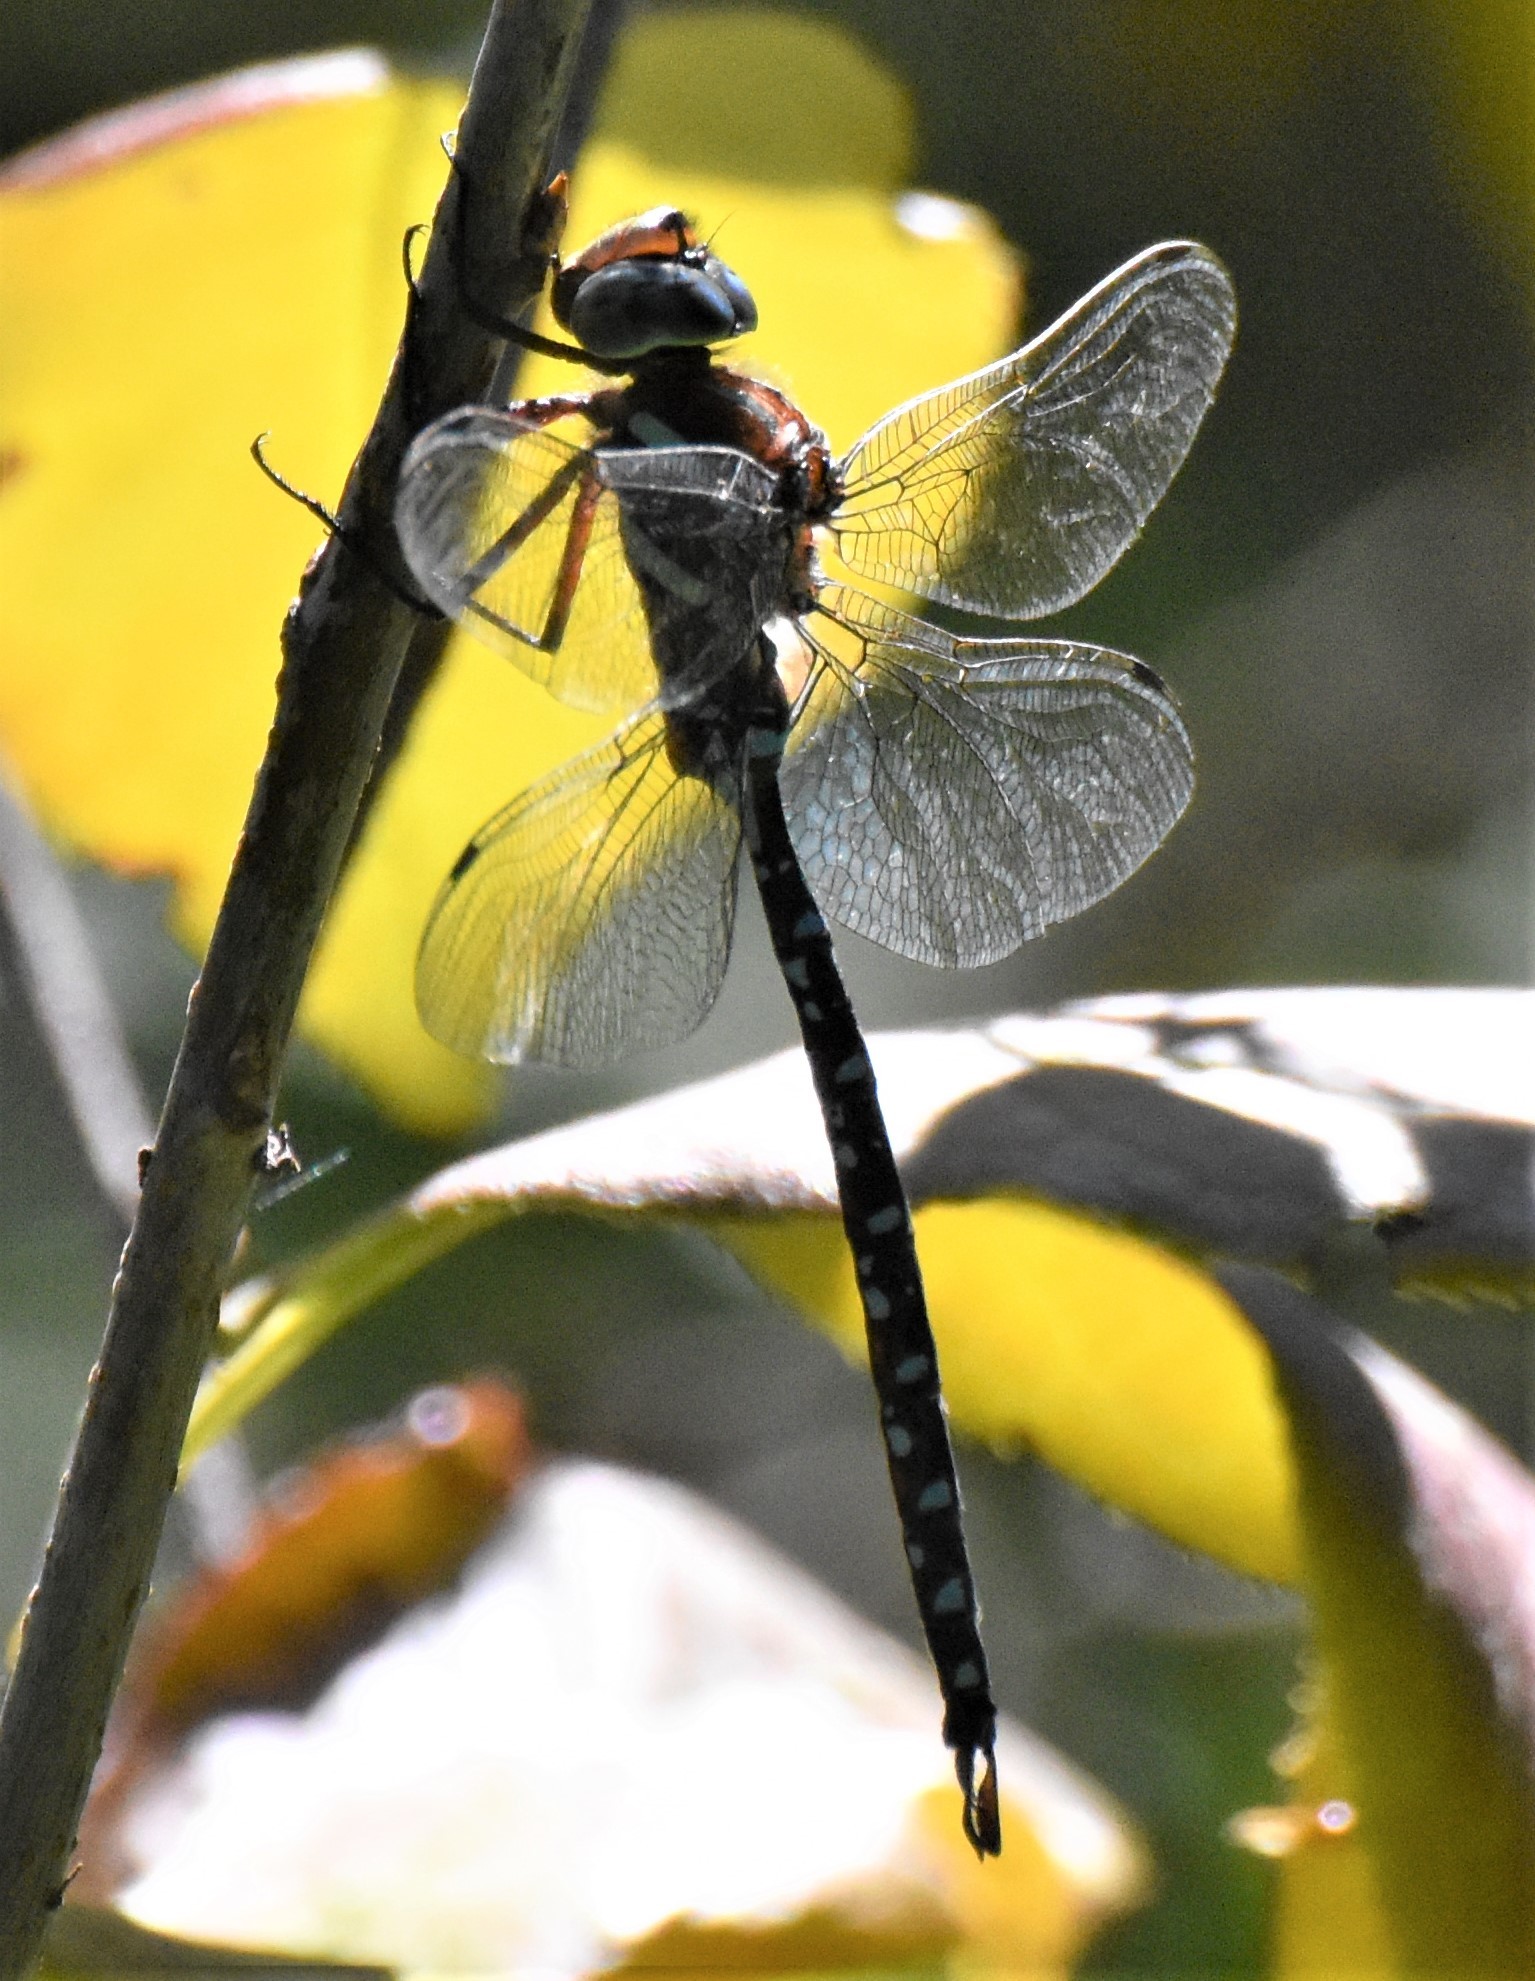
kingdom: Animalia
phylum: Arthropoda
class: Insecta
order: Odonata
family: Aeshnidae
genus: Aeshna
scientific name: Aeshna tuberculifera
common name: Aeschne à tubercules
